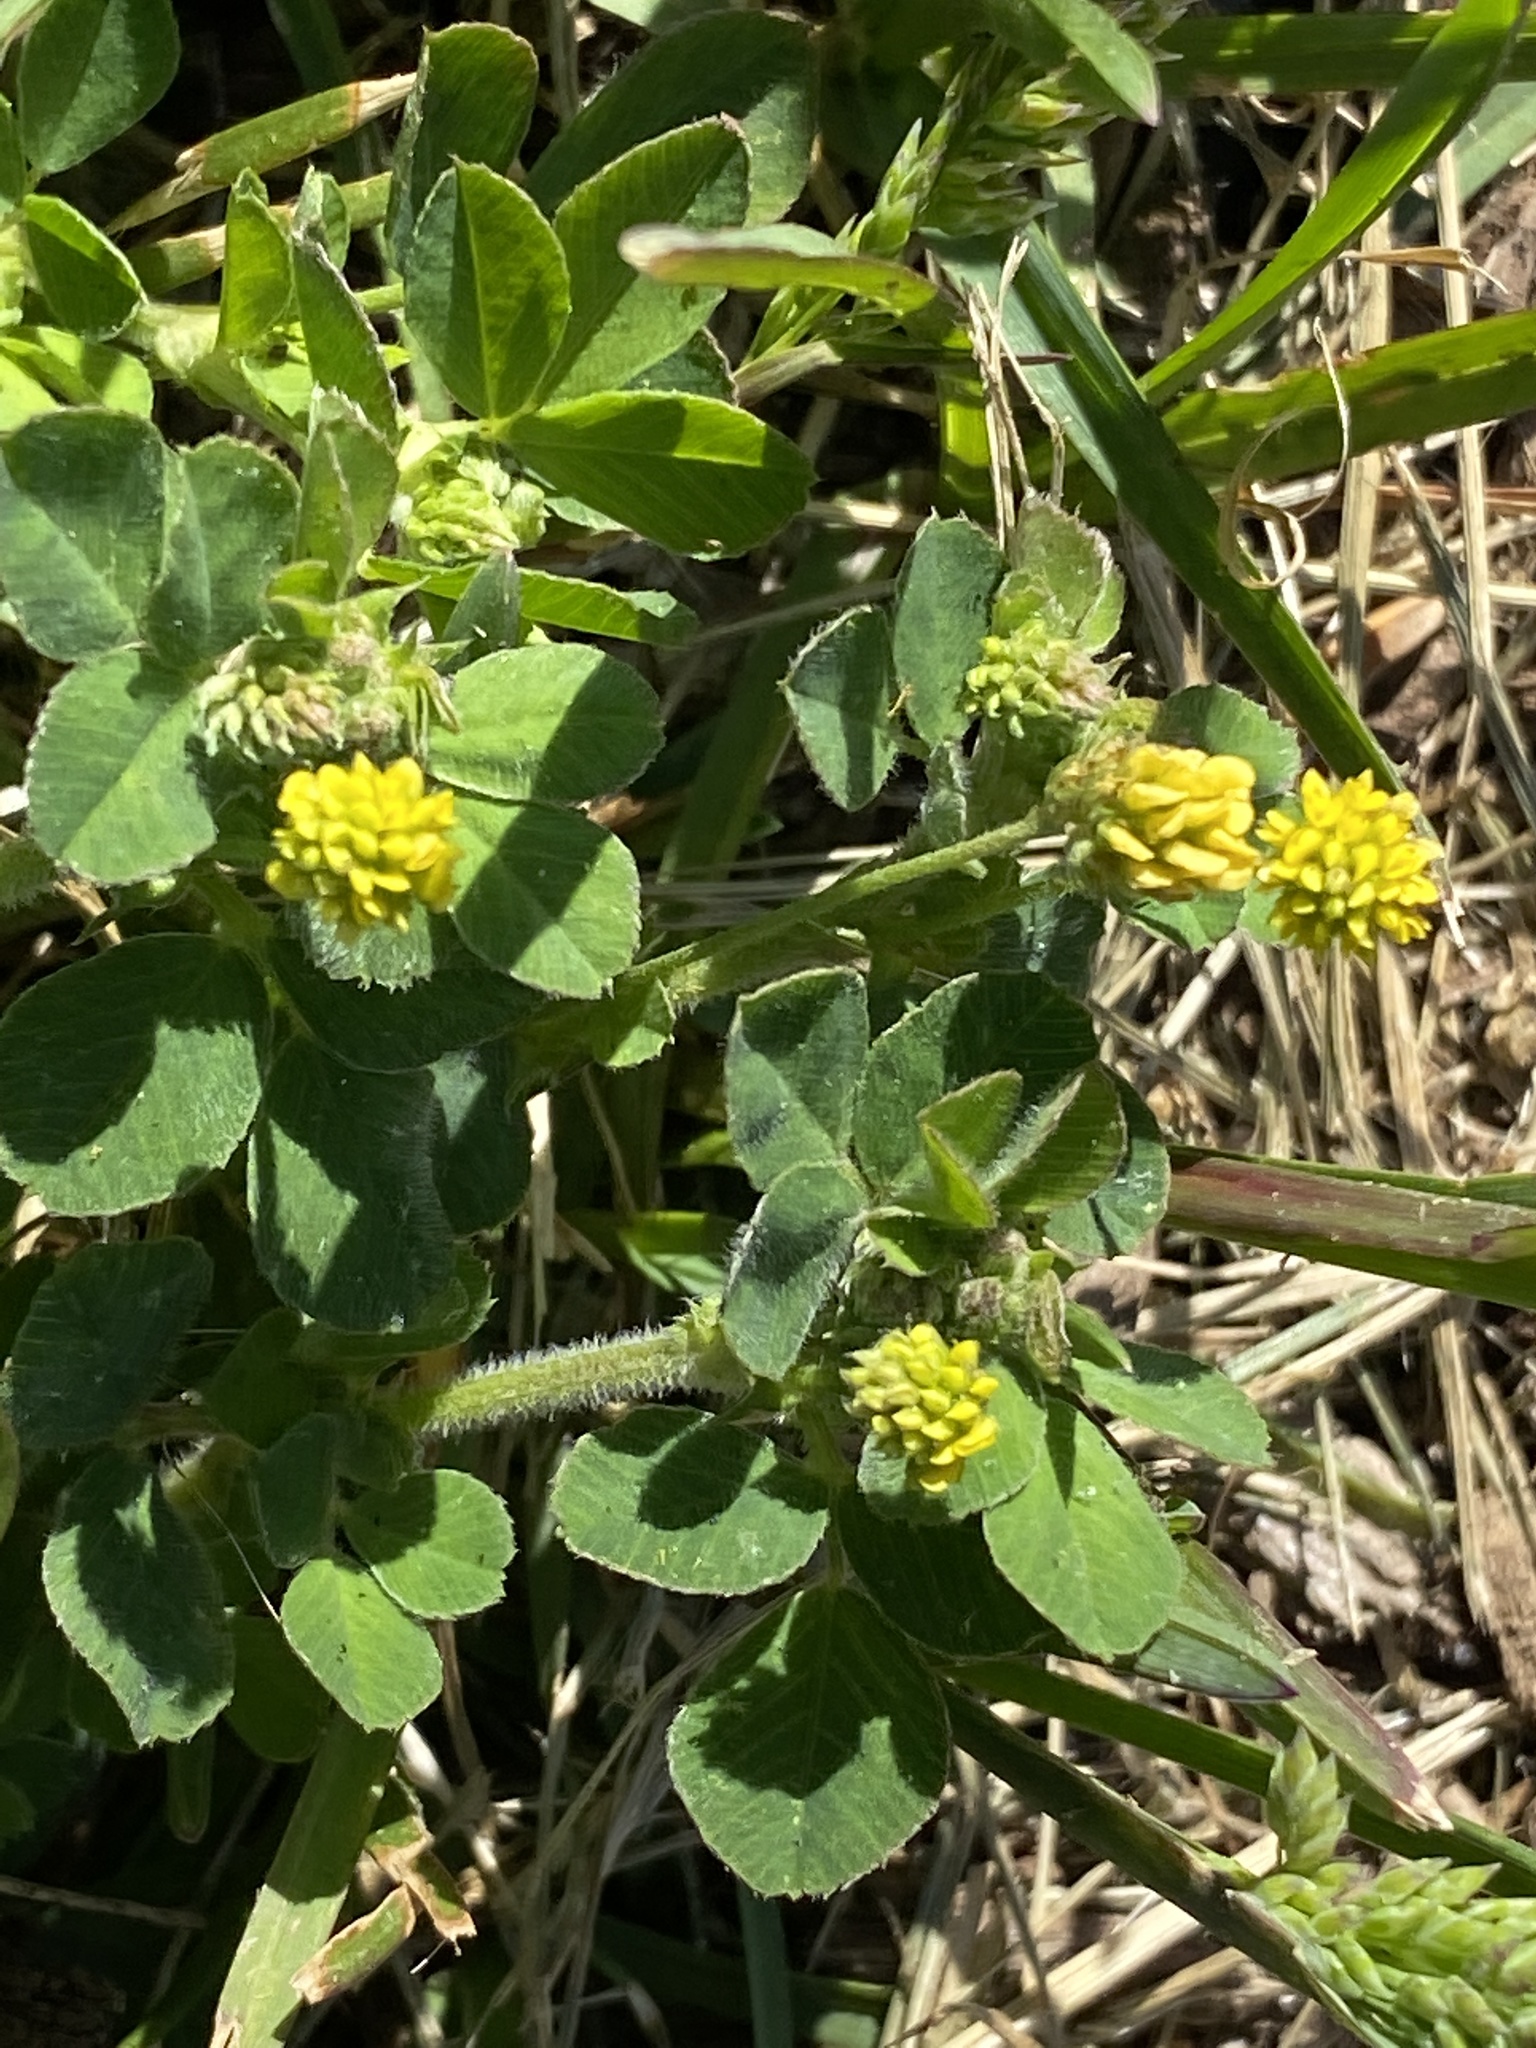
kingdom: Plantae
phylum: Tracheophyta
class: Magnoliopsida
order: Fabales
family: Fabaceae
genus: Medicago
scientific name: Medicago lupulina
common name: Black medick
